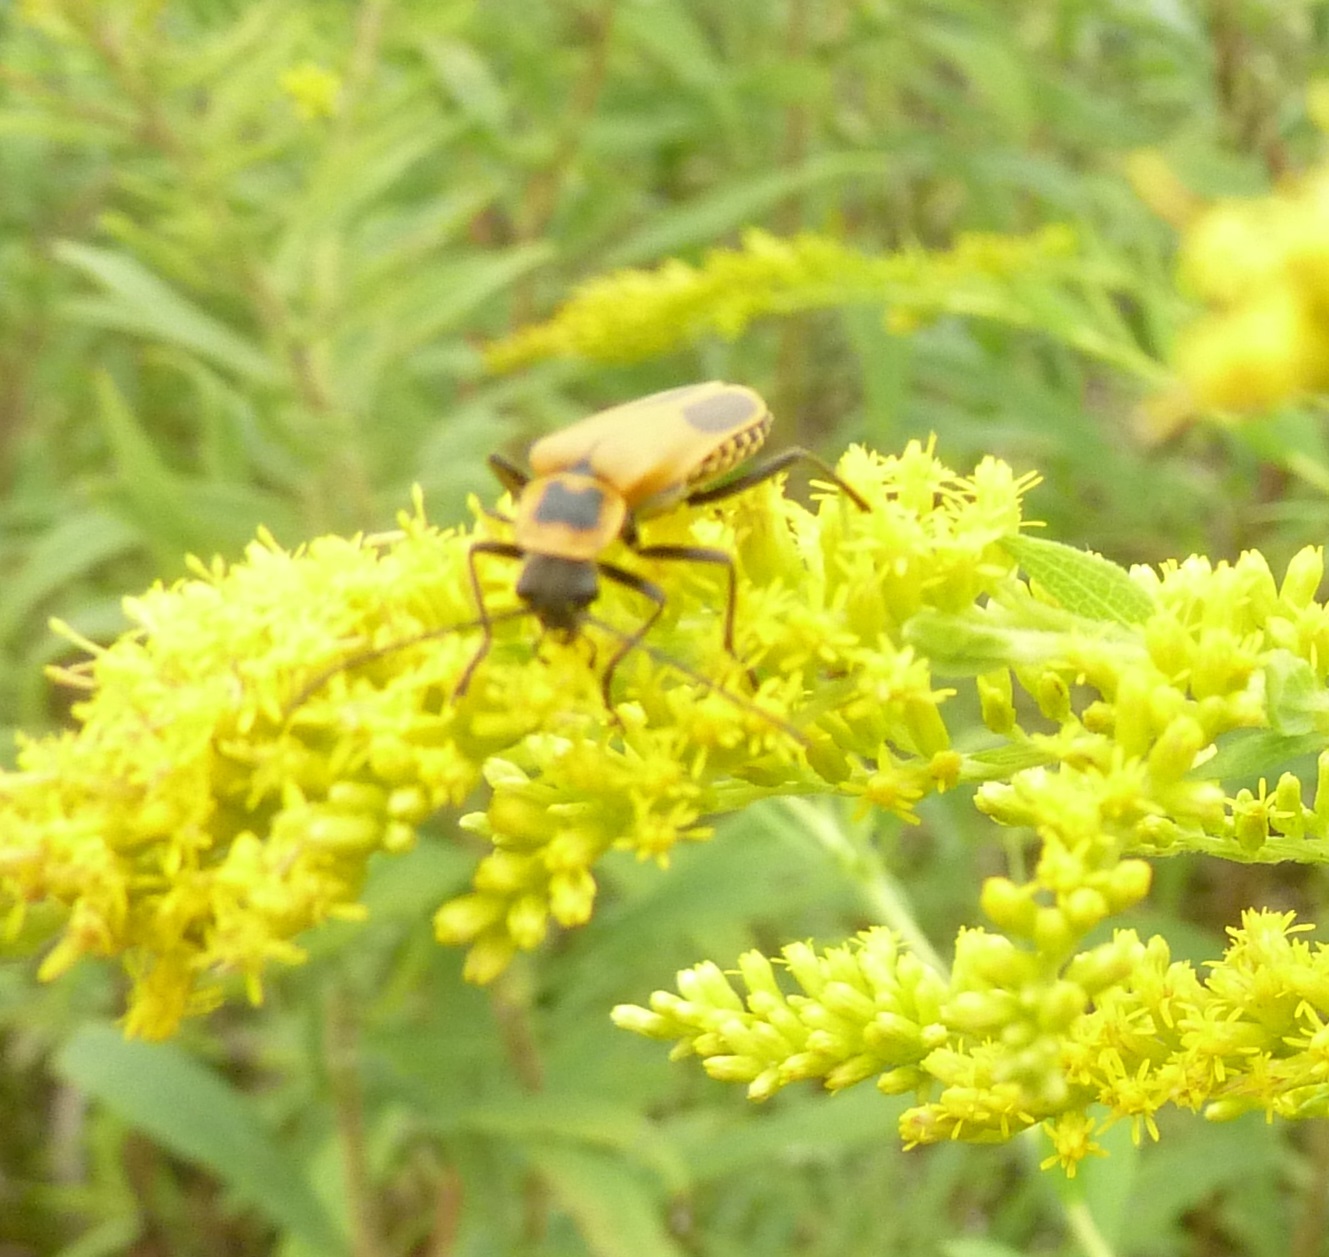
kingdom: Animalia
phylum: Arthropoda
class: Insecta
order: Coleoptera
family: Cantharidae
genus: Chauliognathus
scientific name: Chauliognathus pensylvanicus
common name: Goldenrod soldier beetle
